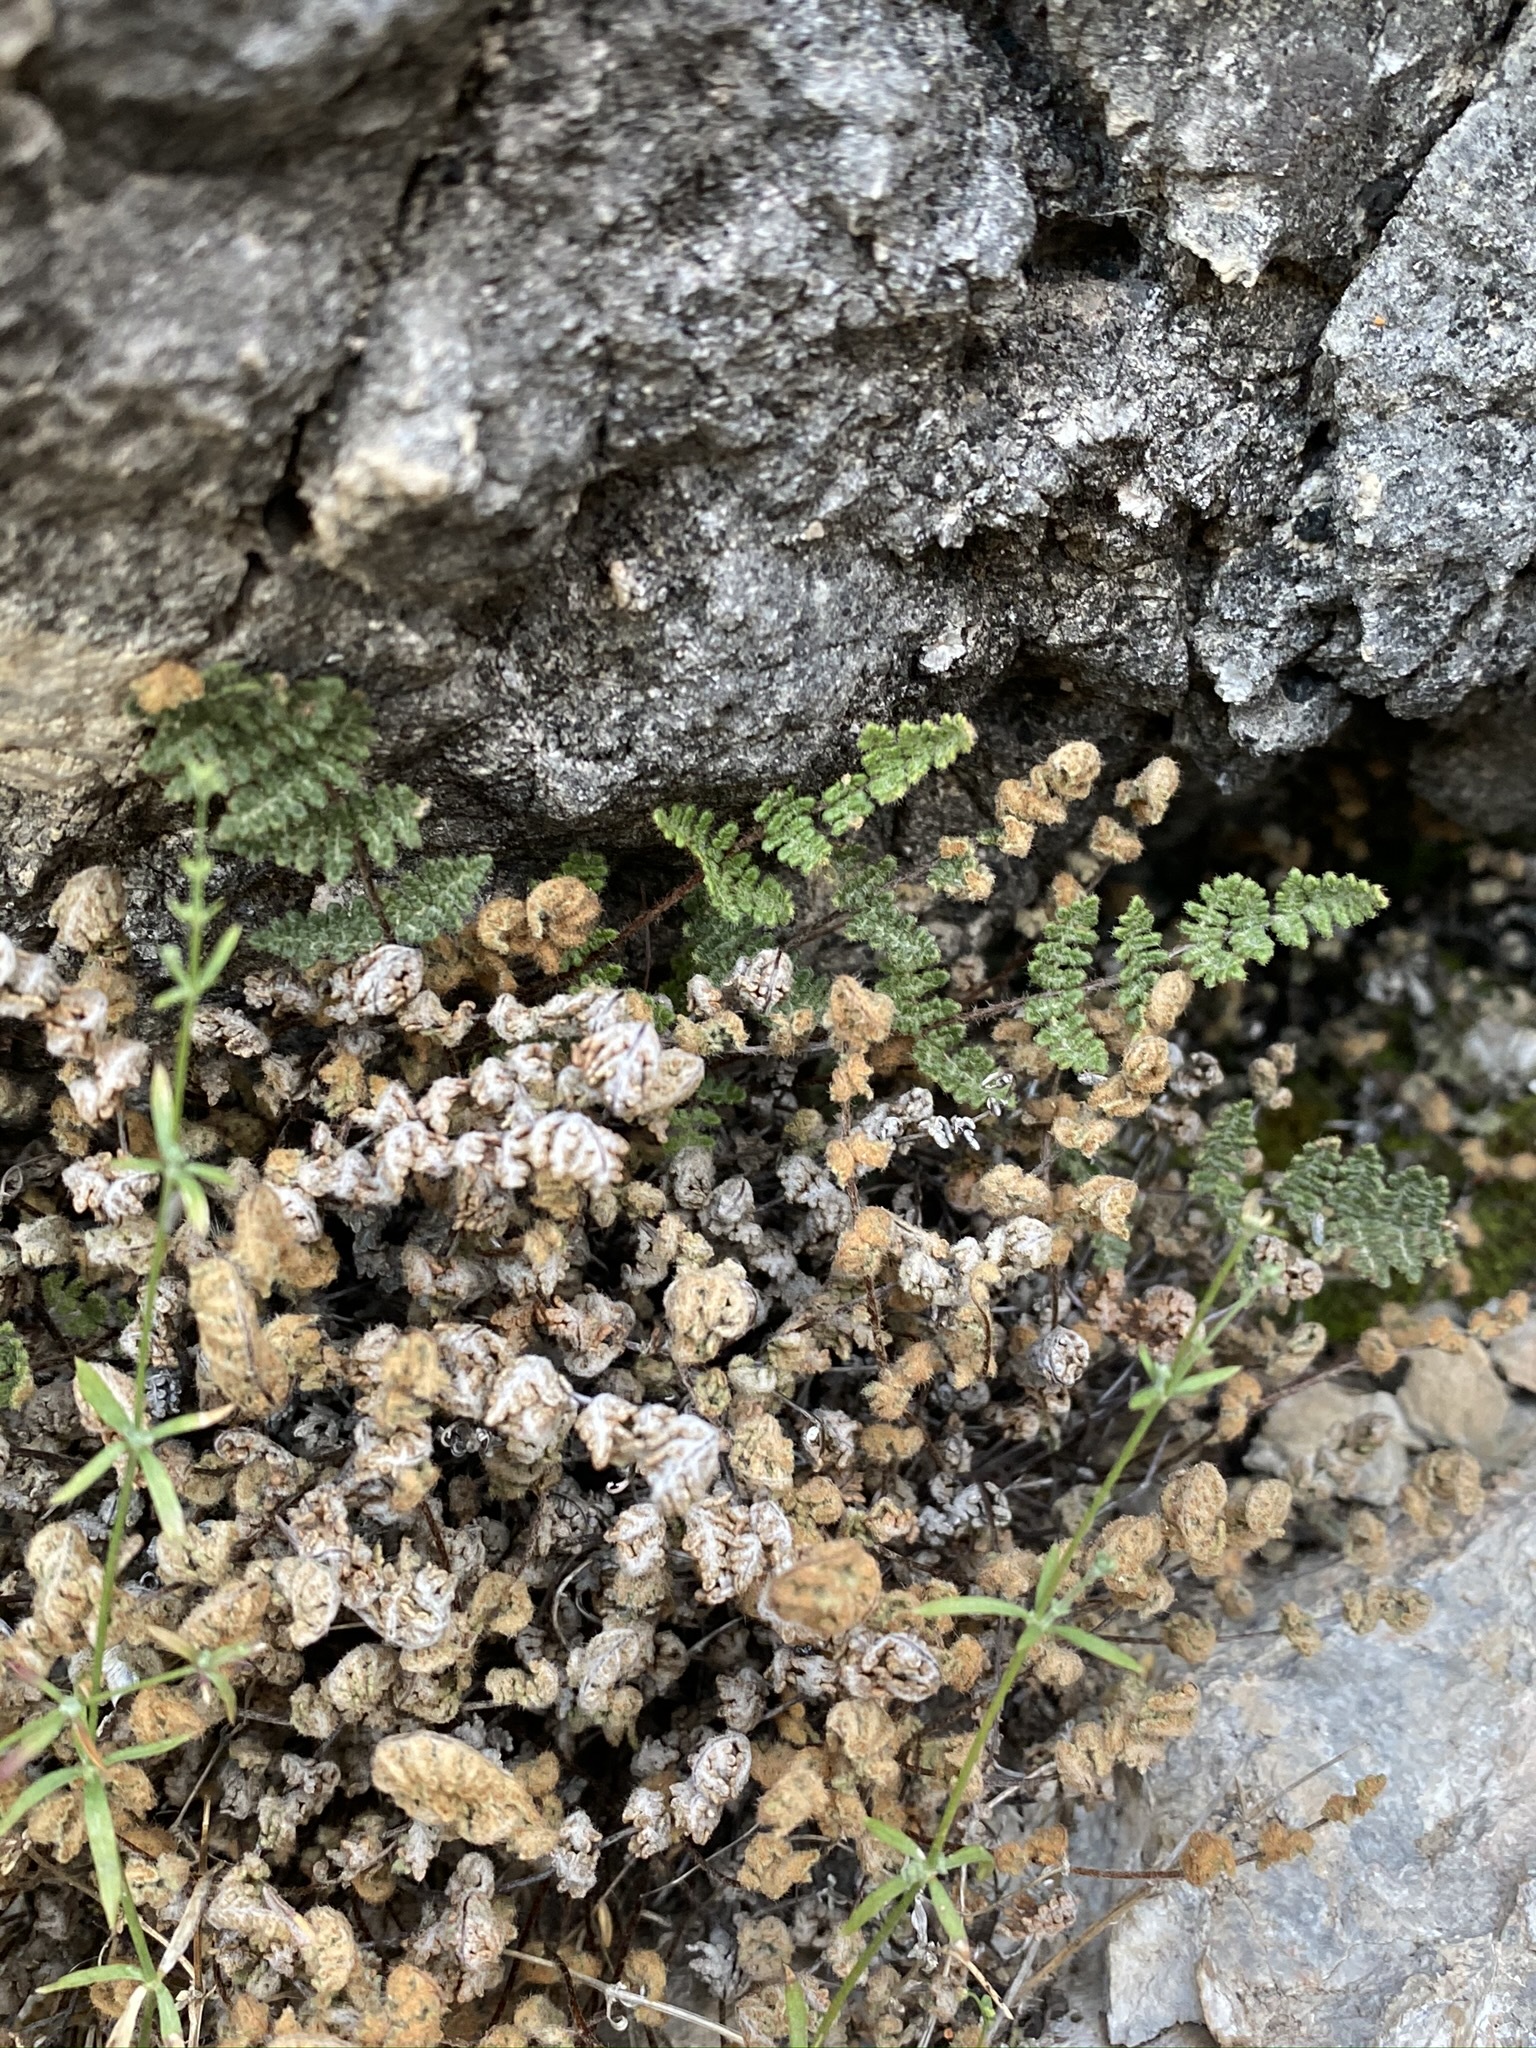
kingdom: Plantae
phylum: Tracheophyta
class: Polypodiopsida
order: Polypodiales
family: Pteridaceae
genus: Myriopteris
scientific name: Myriopteris gracilis
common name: Fee's lip fern
